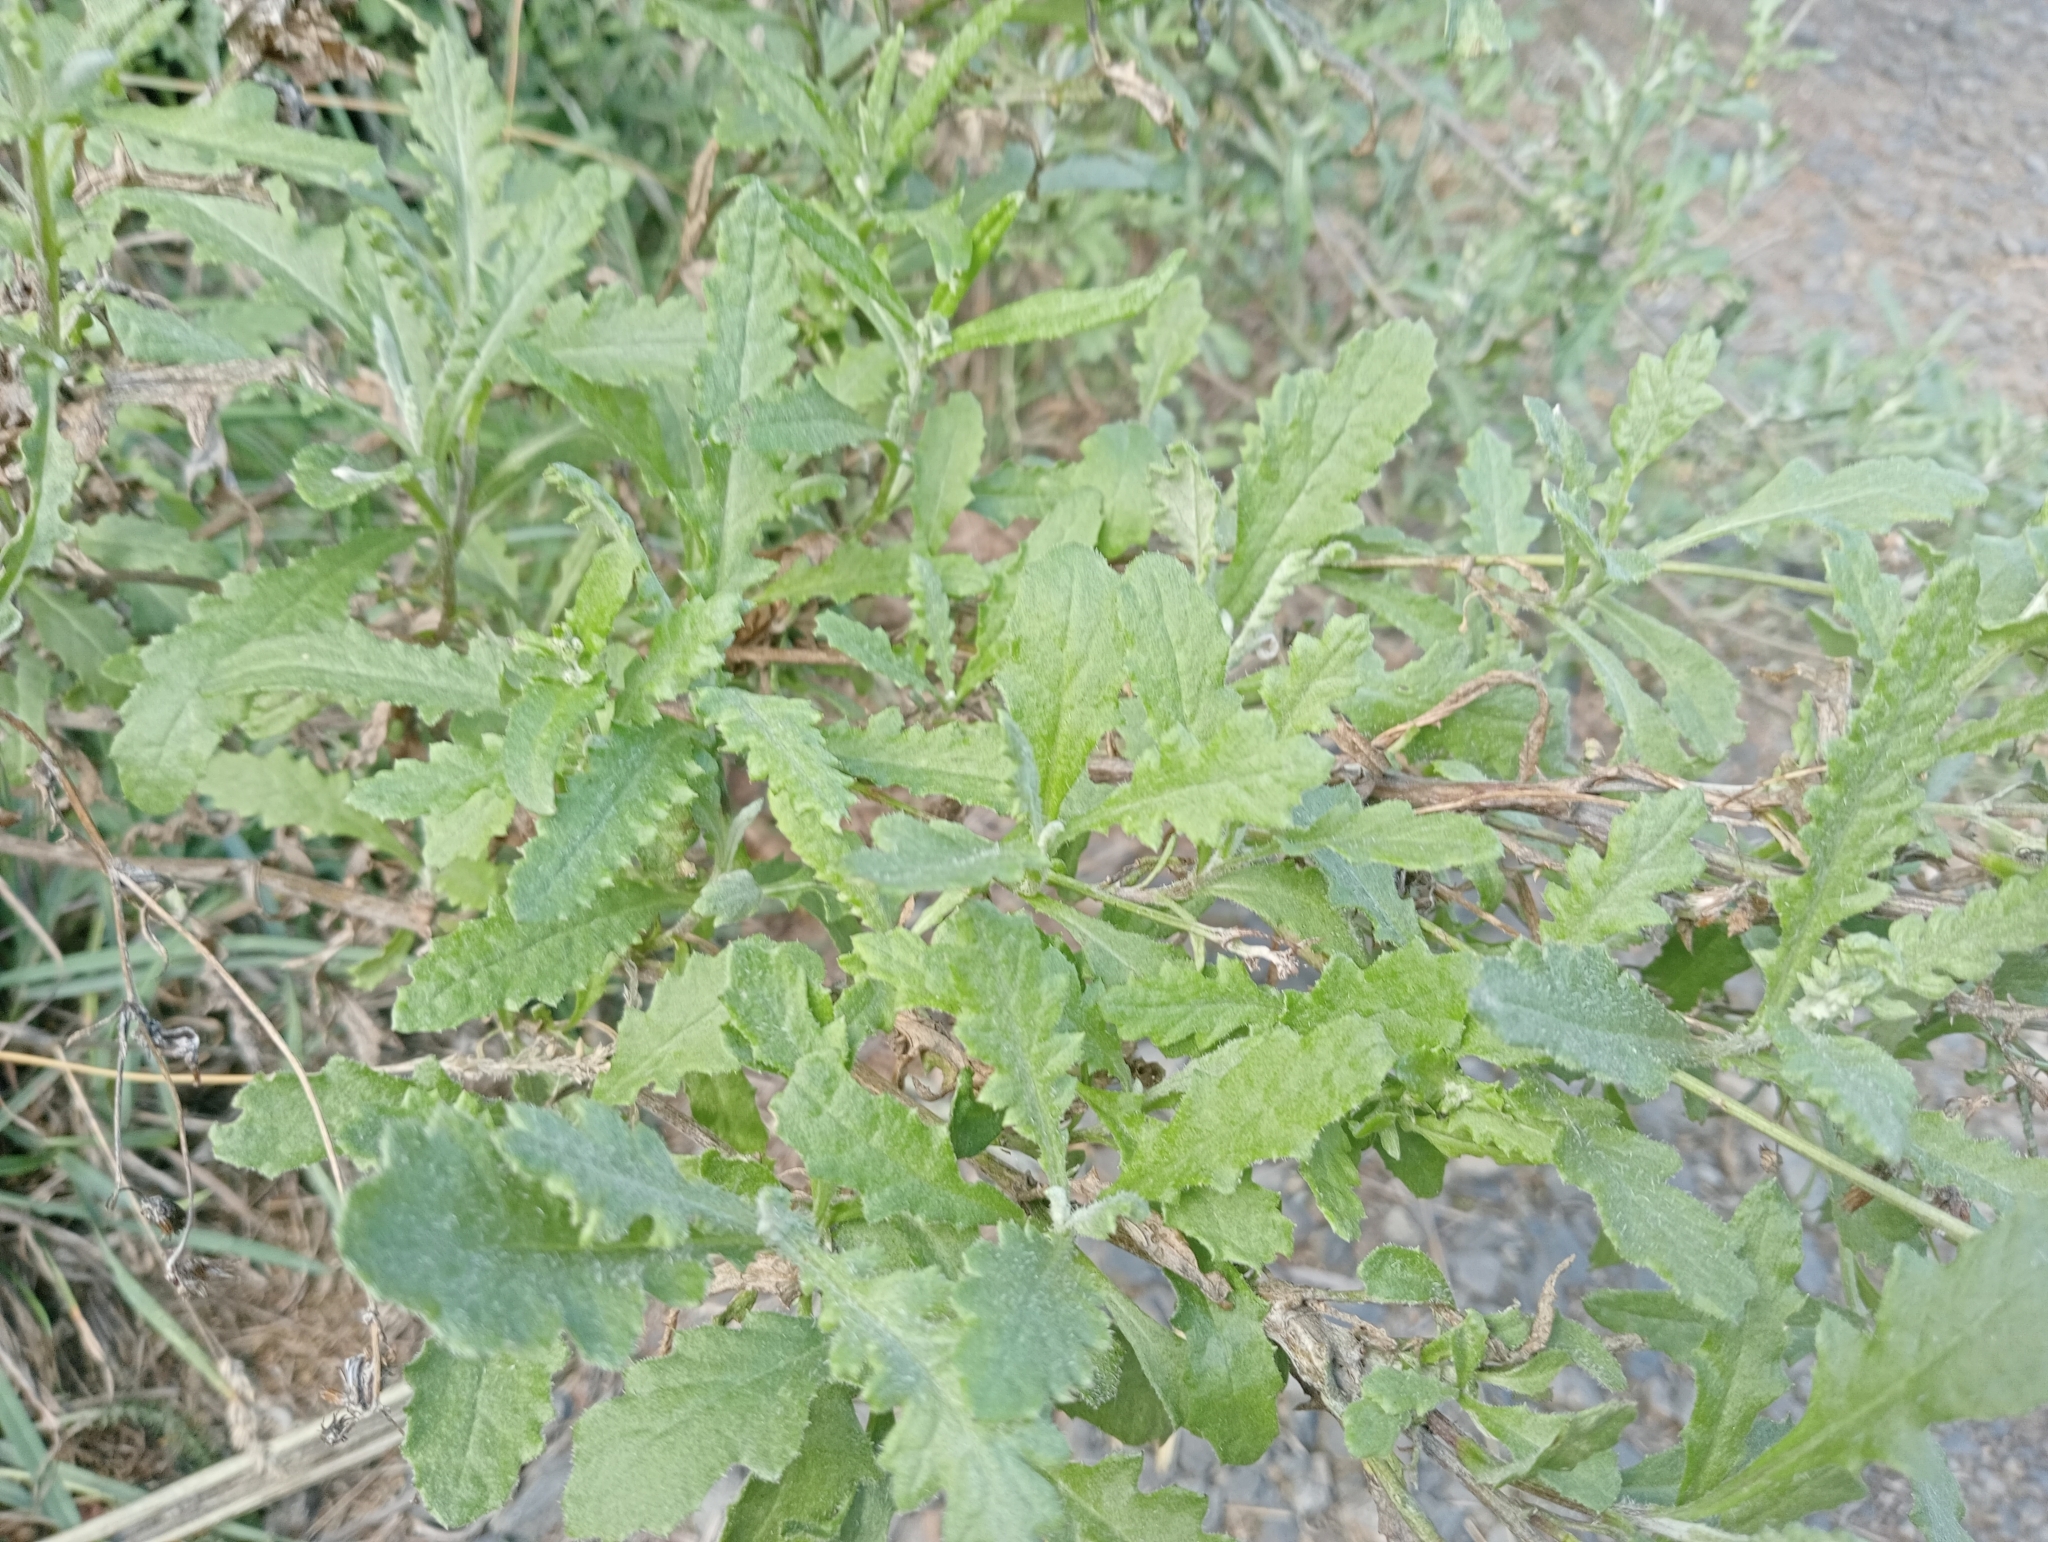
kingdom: Plantae
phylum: Tracheophyta
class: Magnoliopsida
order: Asterales
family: Asteraceae
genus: Senecio
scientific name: Senecio glomeratus
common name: Cutleaf burnweed
